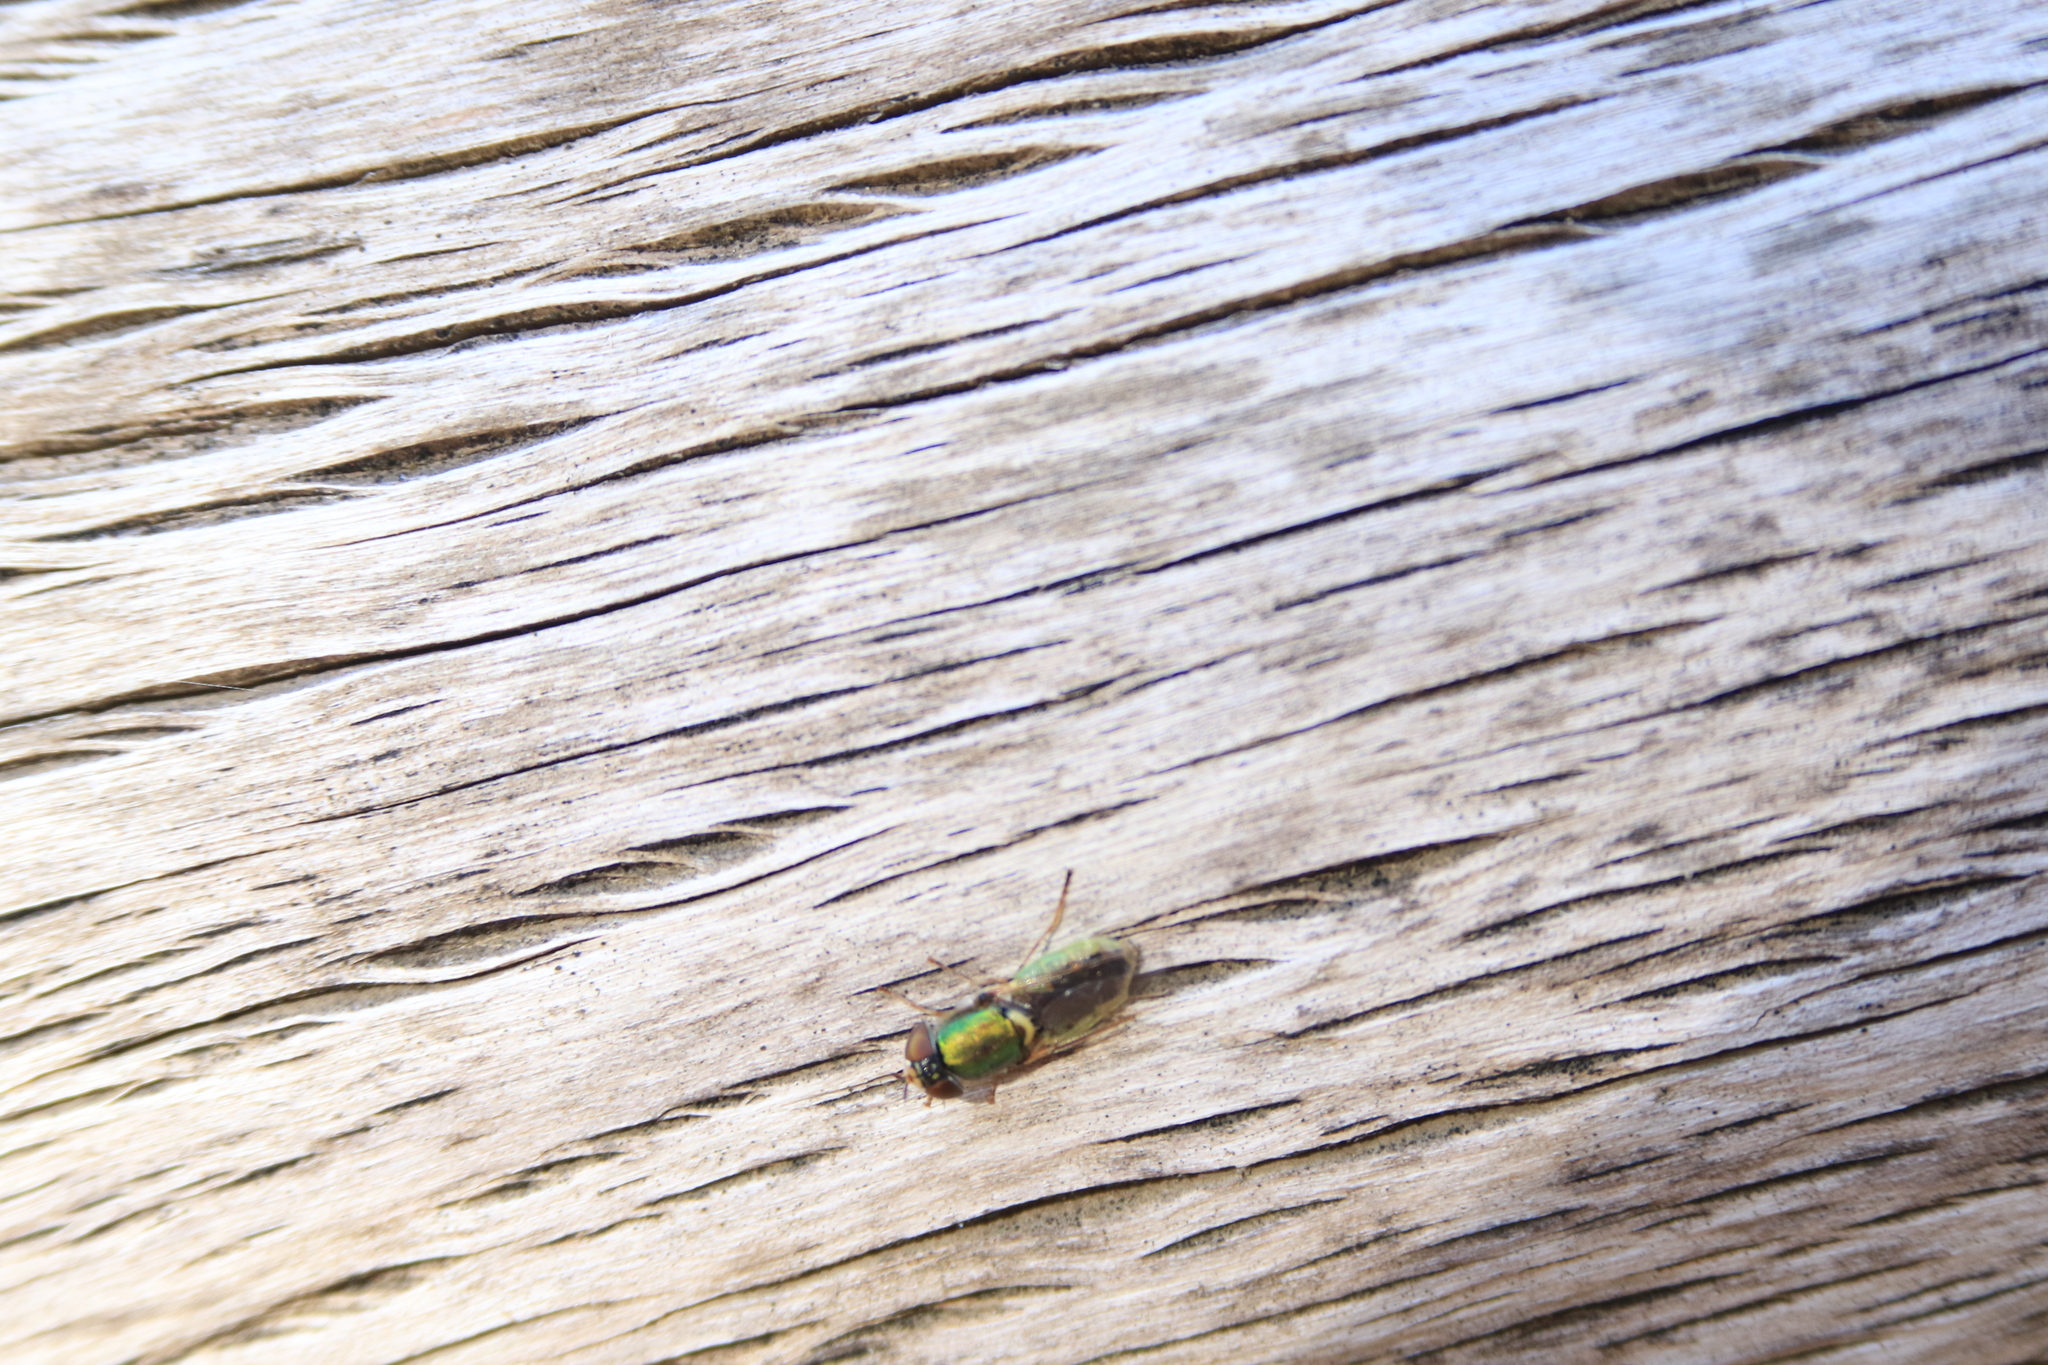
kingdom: Animalia
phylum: Arthropoda
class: Insecta
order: Diptera
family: Stratiomyidae
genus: Odontomyia
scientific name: Odontomyia decipiens
